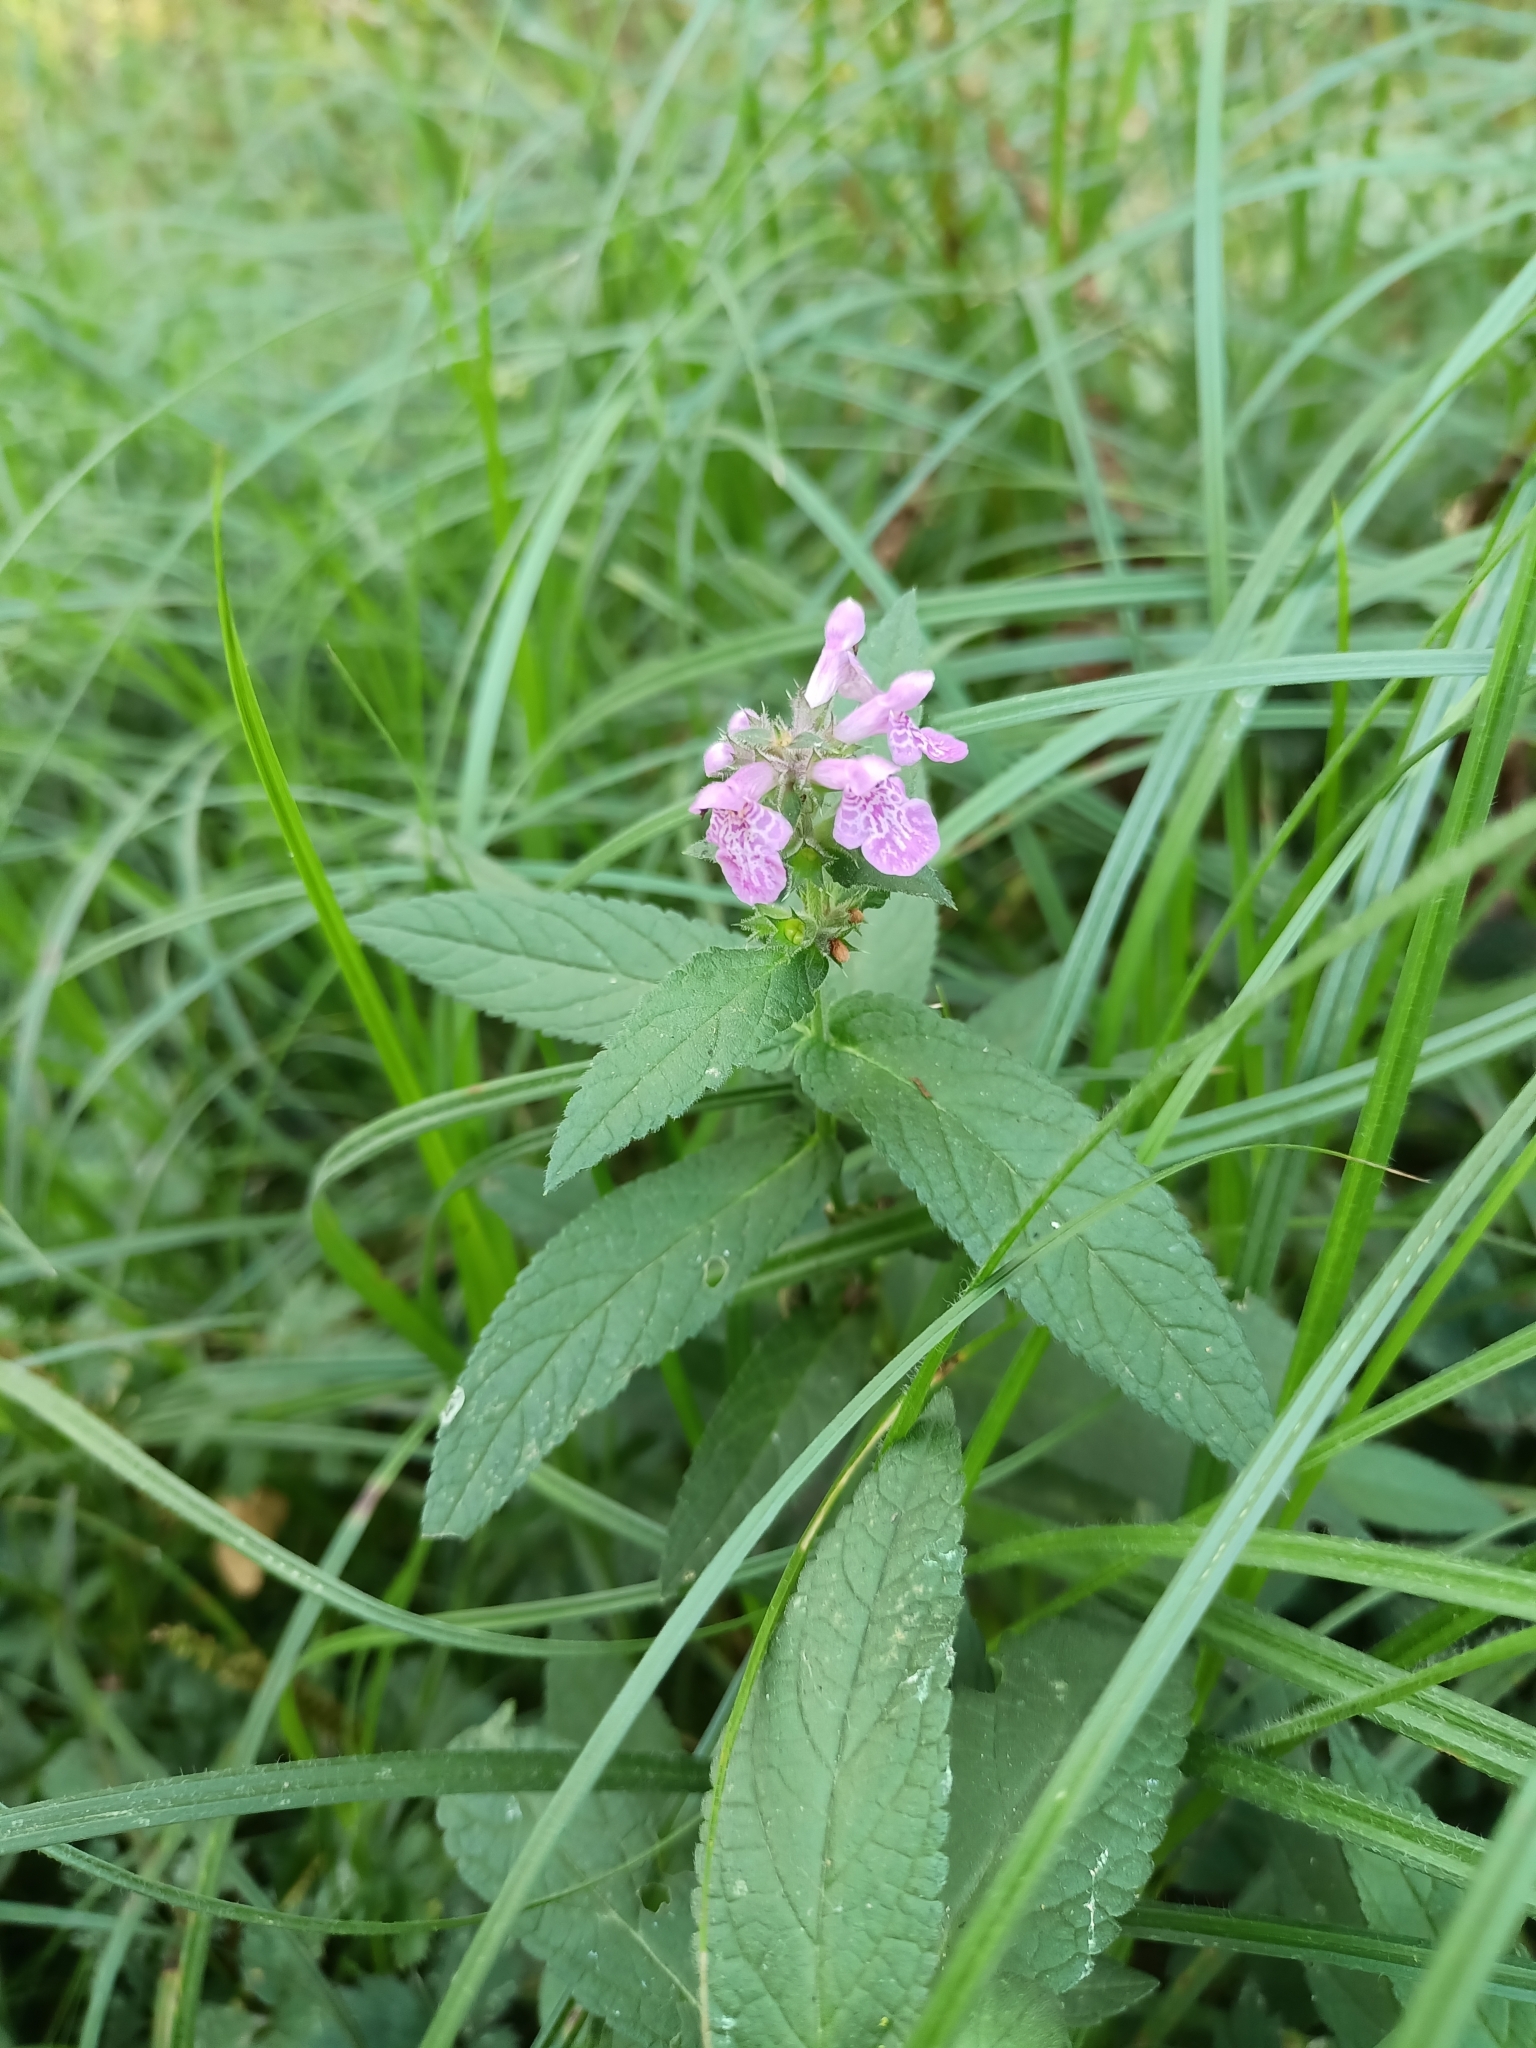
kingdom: Plantae
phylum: Tracheophyta
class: Magnoliopsida
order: Lamiales
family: Lamiaceae
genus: Stachys
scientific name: Stachys palustris
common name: Marsh woundwort
